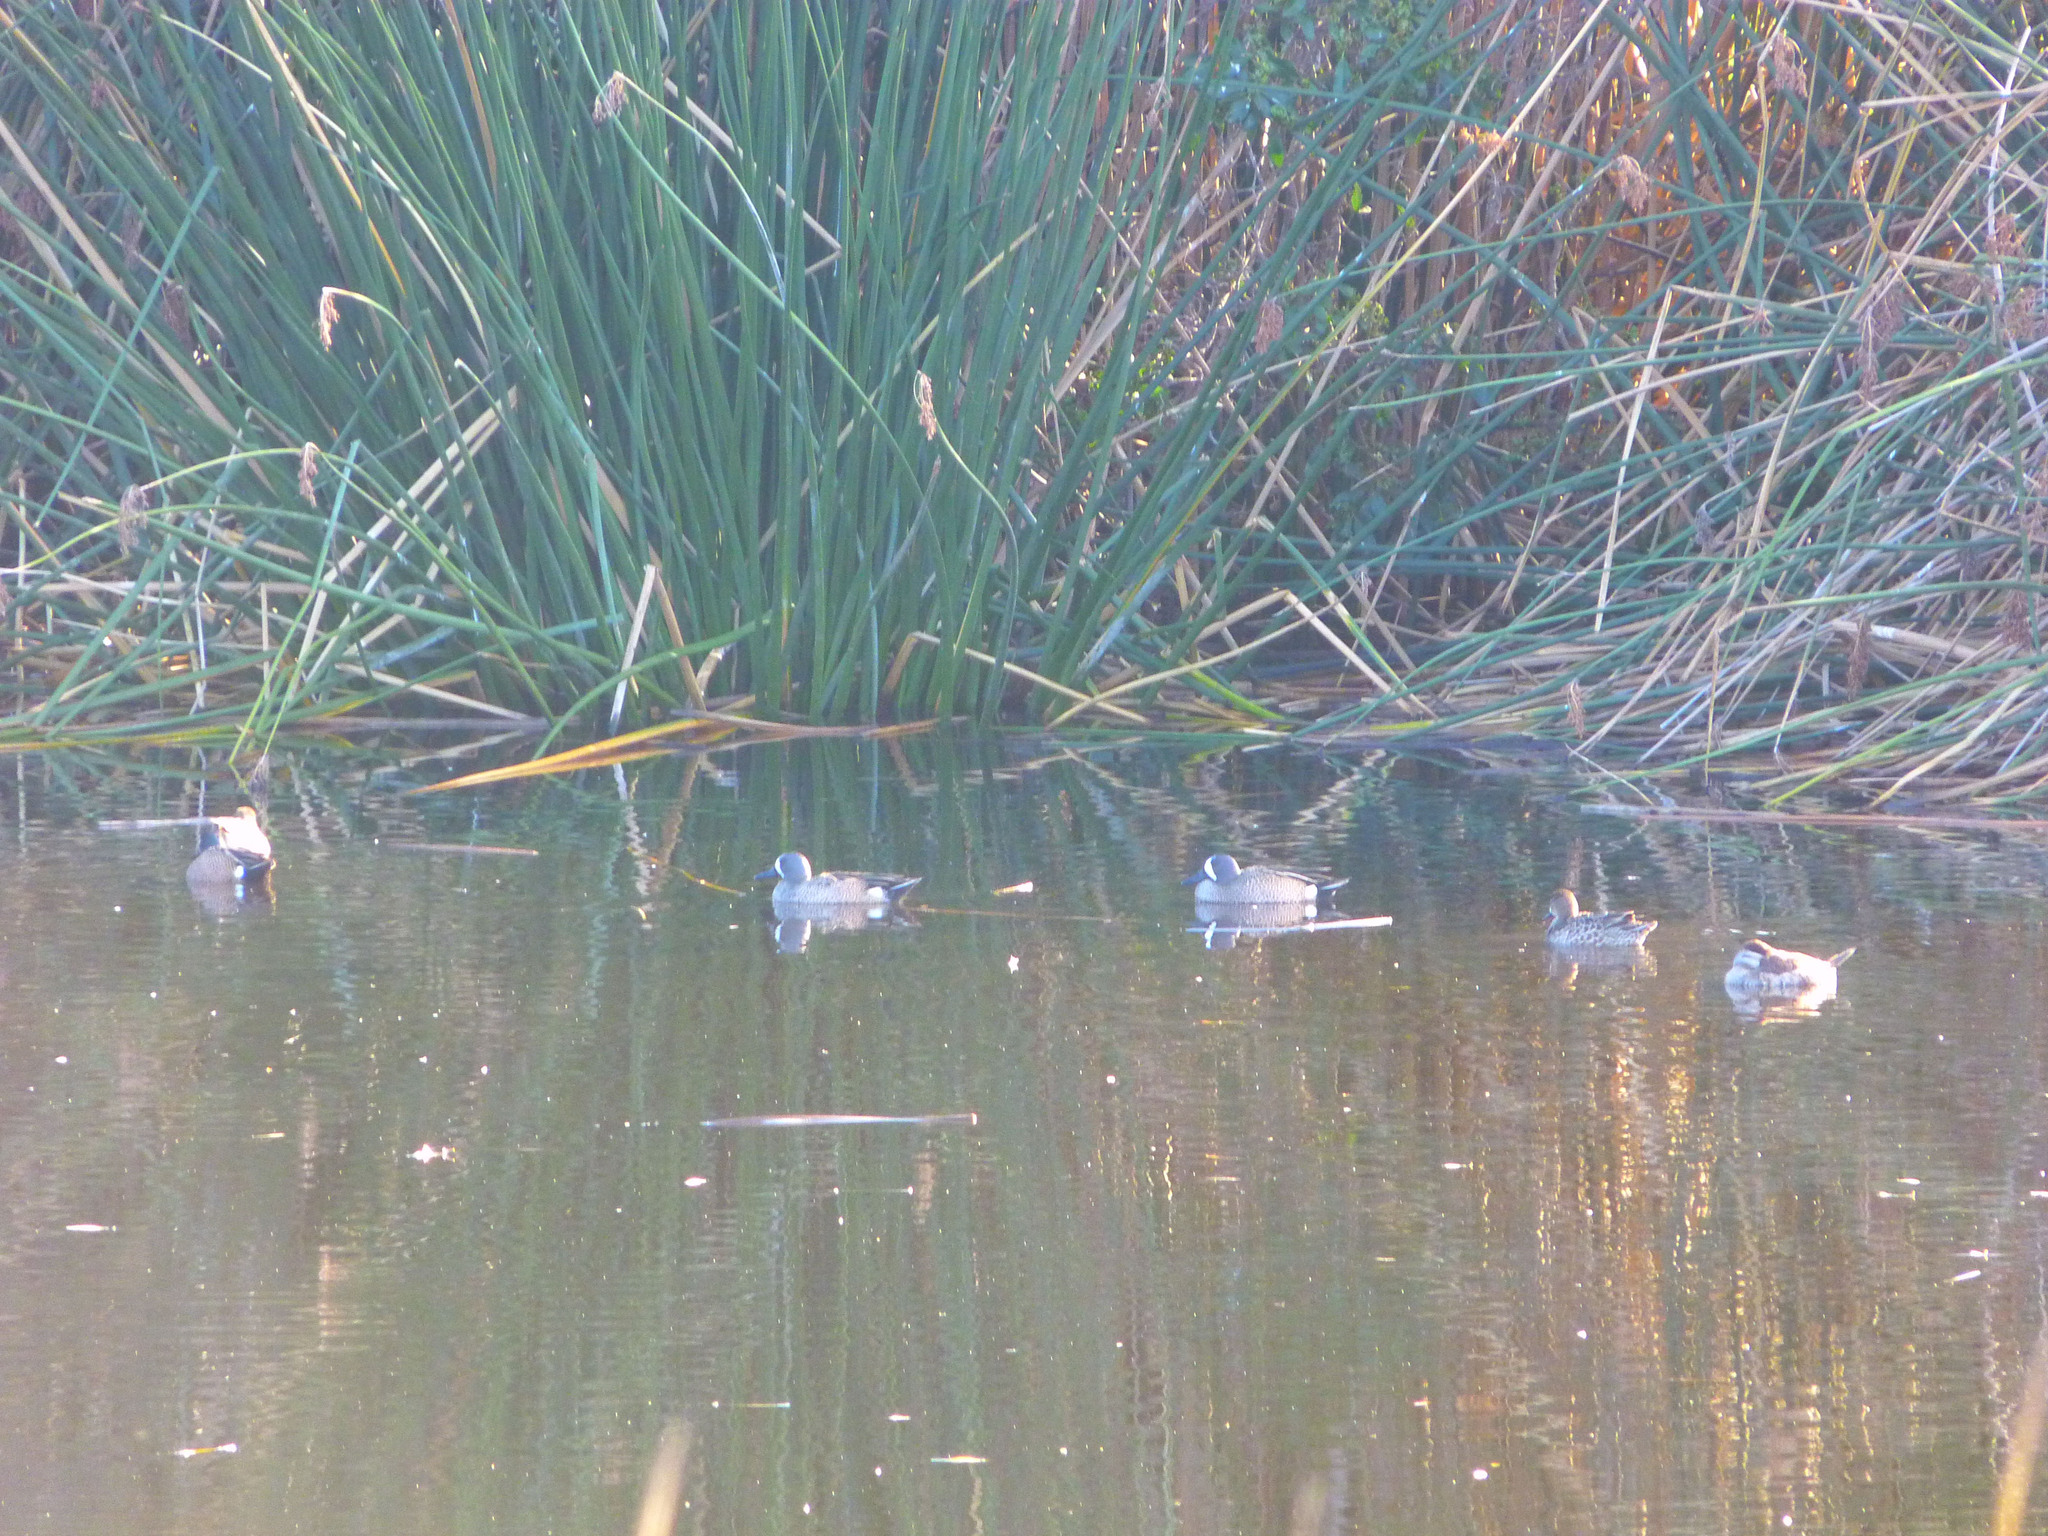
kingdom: Animalia
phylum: Chordata
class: Aves
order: Anseriformes
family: Anatidae
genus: Spatula
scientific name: Spatula discors
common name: Blue-winged teal
